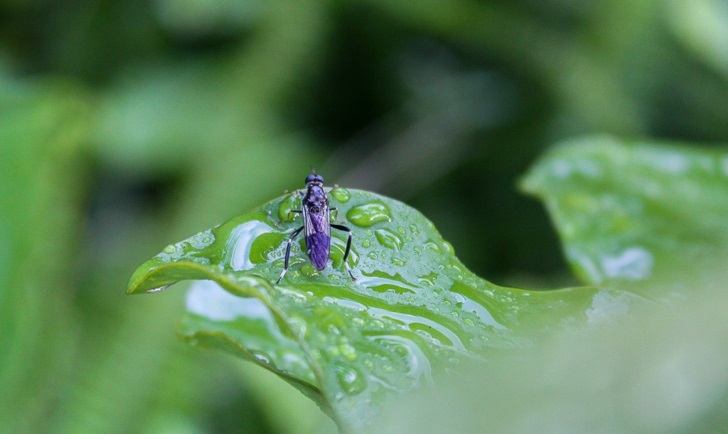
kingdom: Animalia
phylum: Arthropoda
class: Insecta
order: Diptera
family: Stratiomyidae
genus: Exaireta
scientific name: Exaireta spinigera
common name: Blue soldier fly
